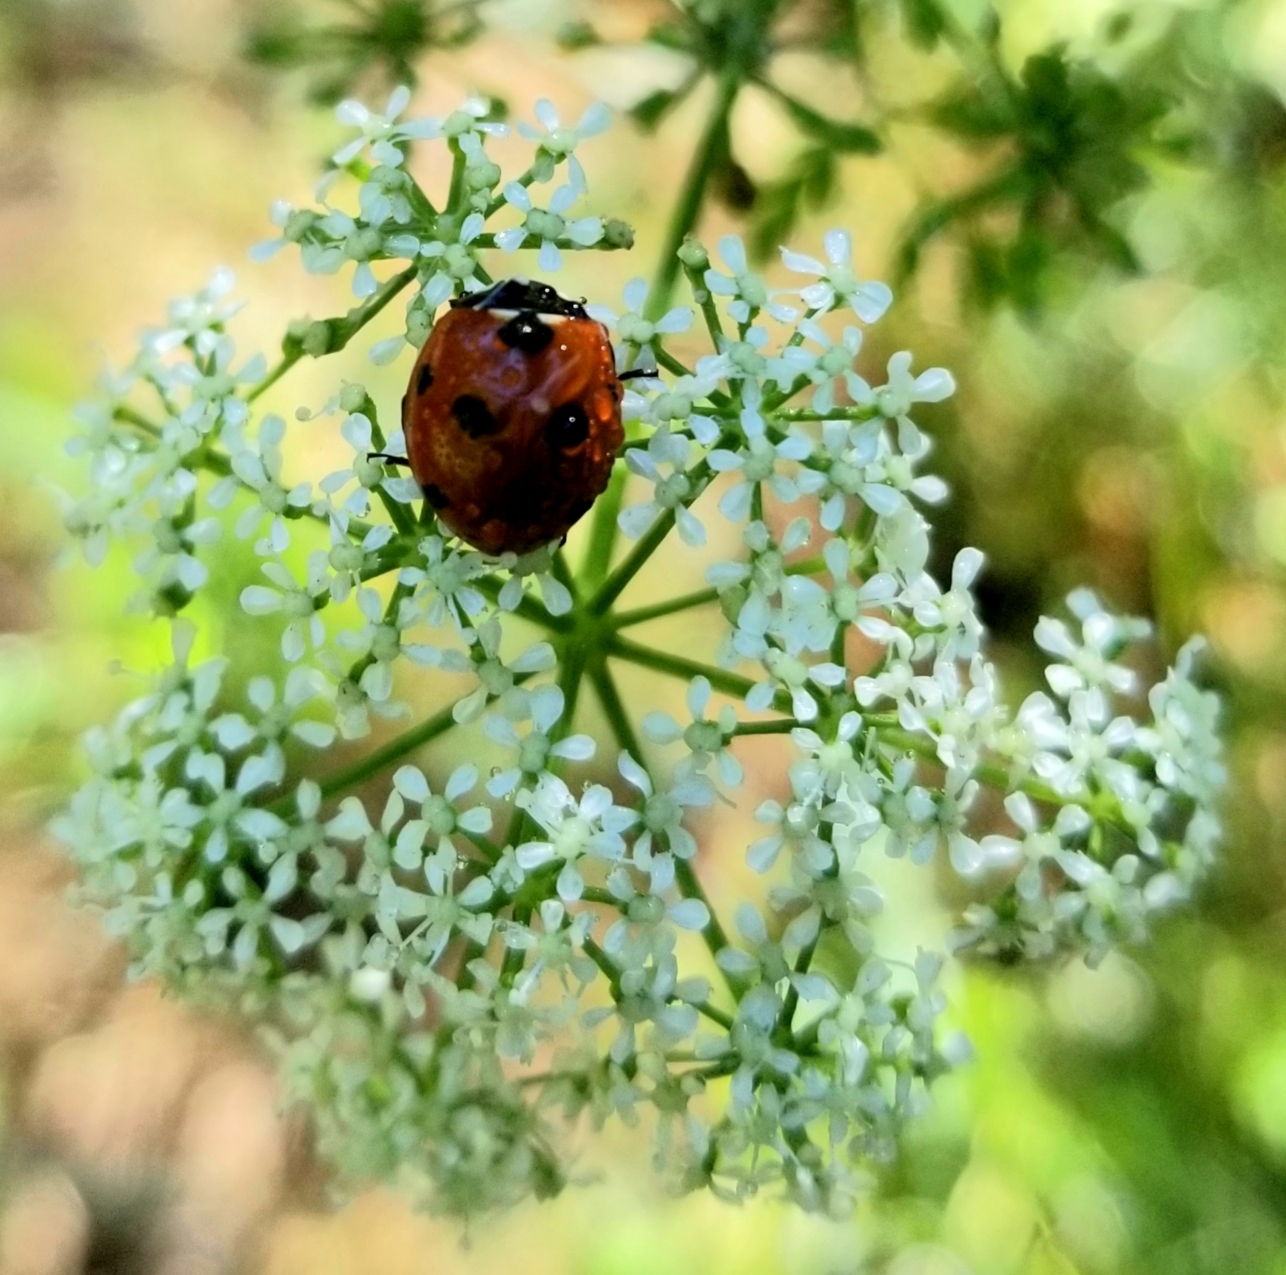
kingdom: Animalia
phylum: Arthropoda
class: Insecta
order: Coleoptera
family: Coccinellidae
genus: Coccinella
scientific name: Coccinella septempunctata
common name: Sevenspotted lady beetle
